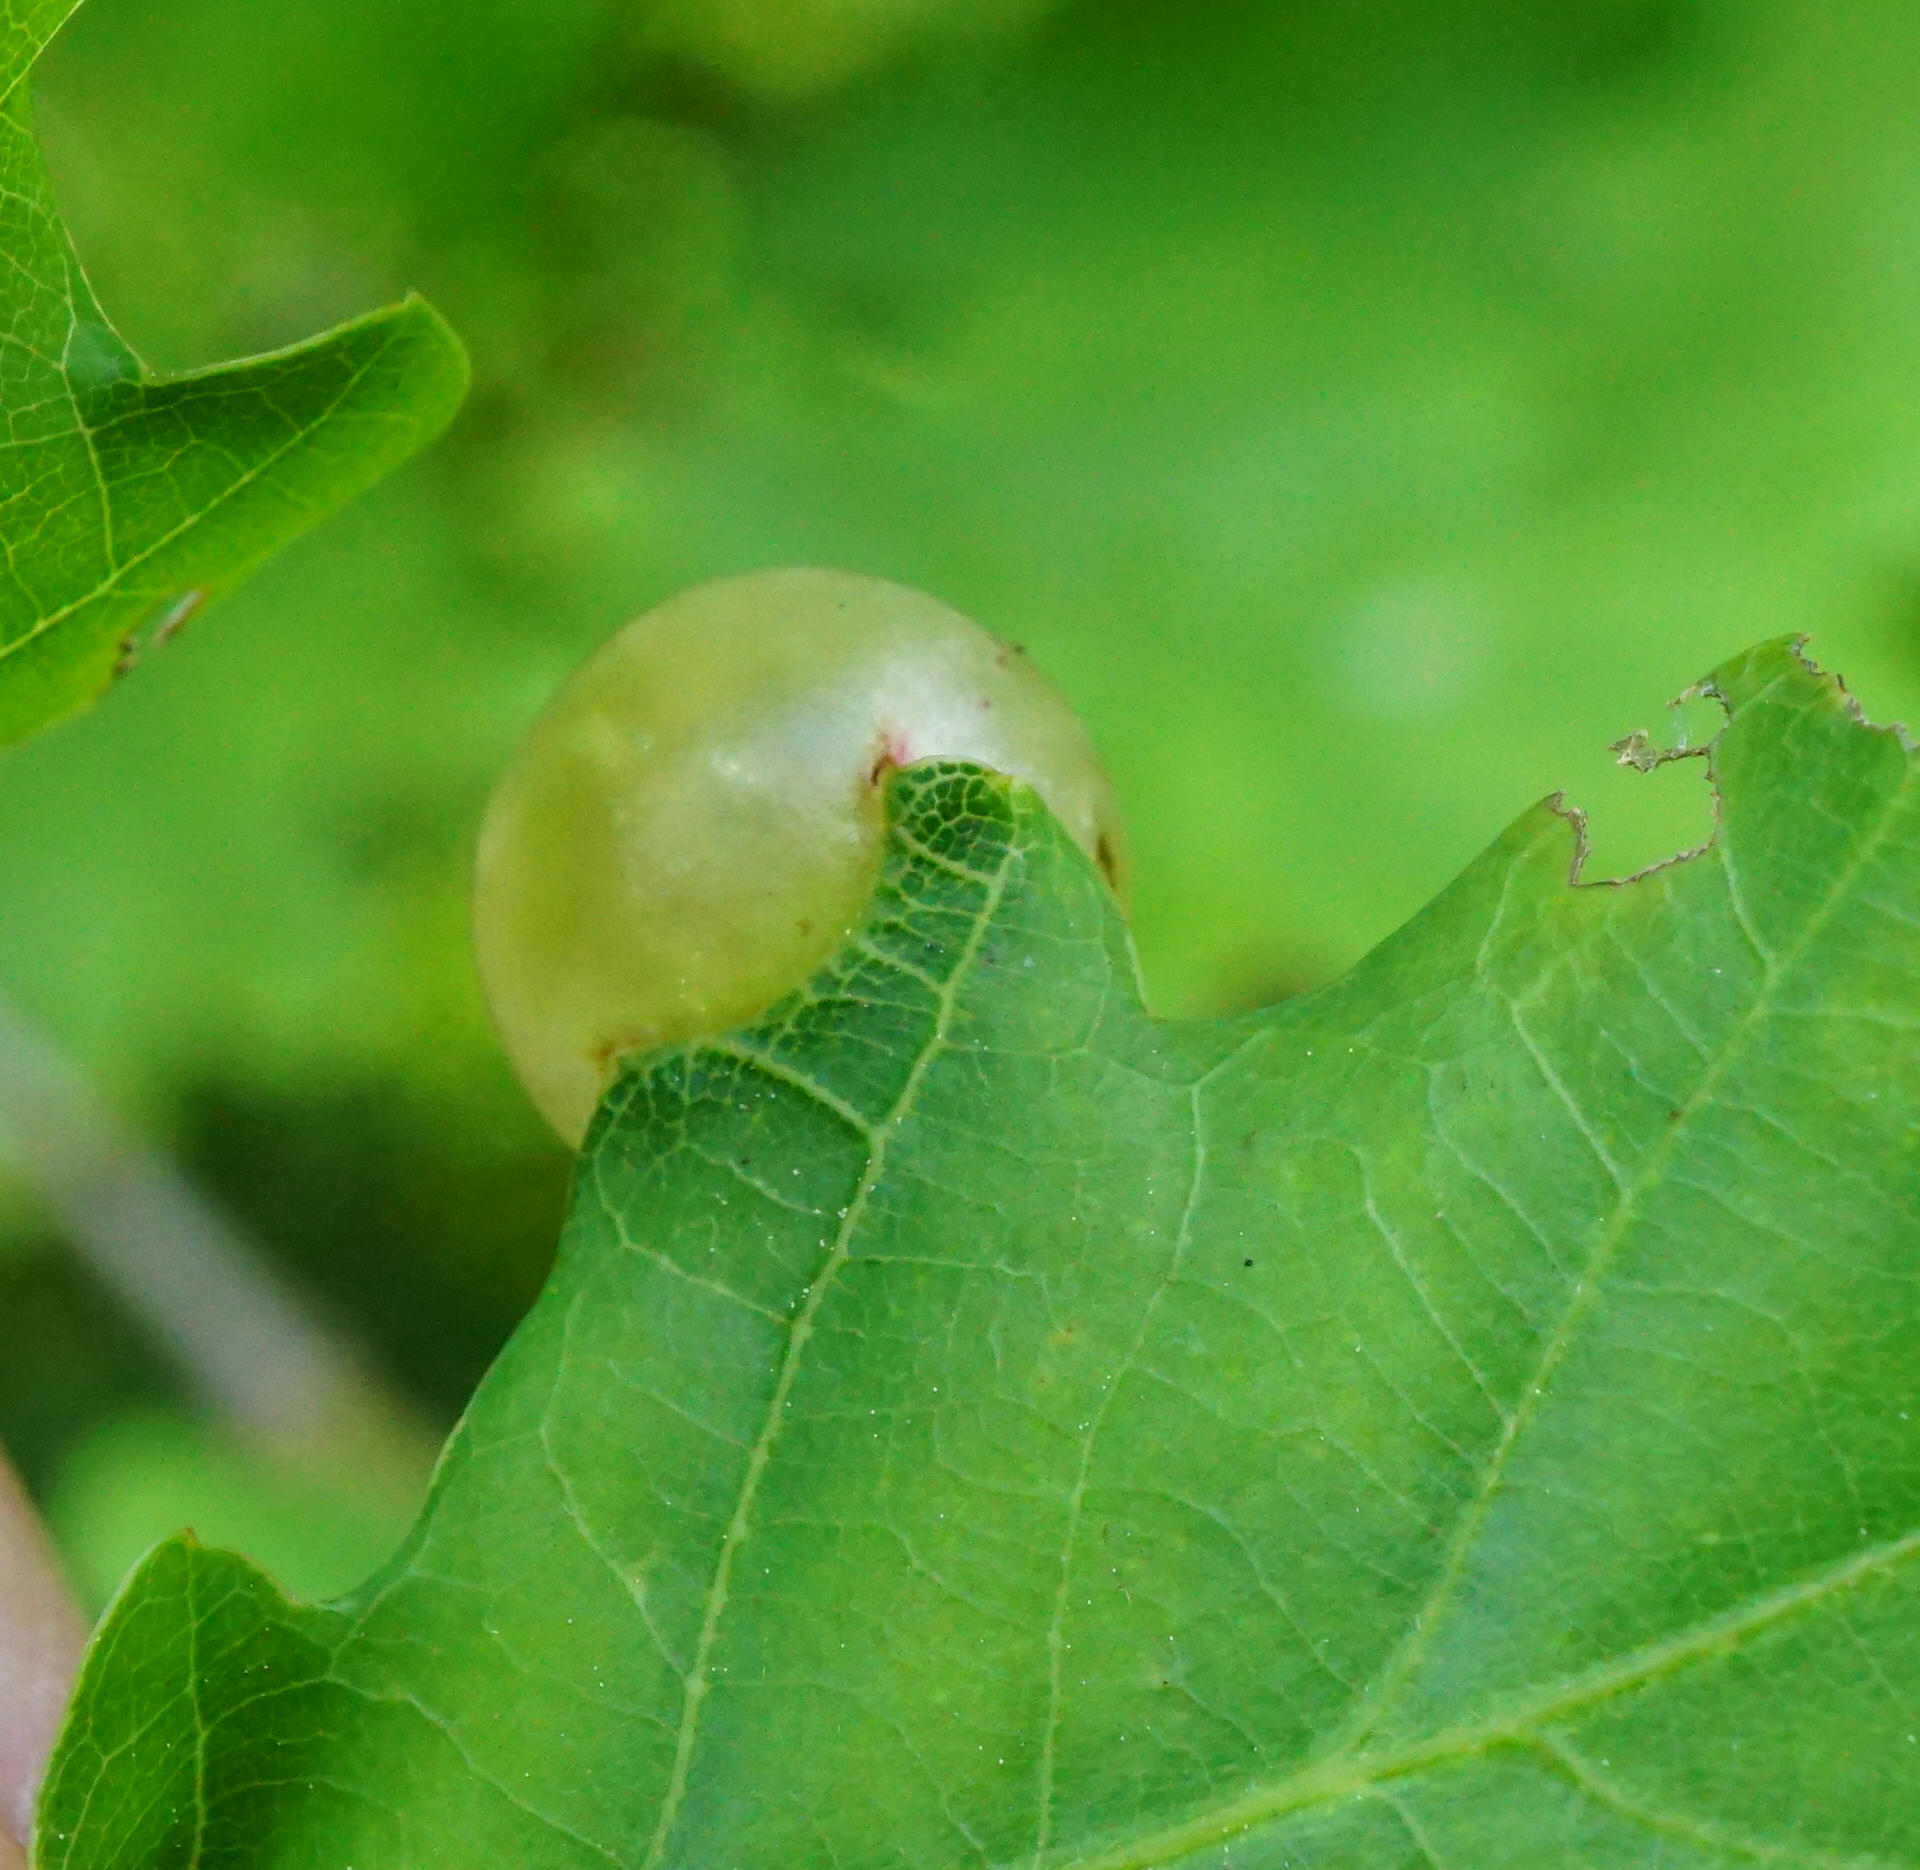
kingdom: Animalia
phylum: Arthropoda
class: Insecta
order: Hymenoptera
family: Cynipidae
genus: Neuroterus
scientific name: Neuroterus quercusbaccarum
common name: Common spangle gall
